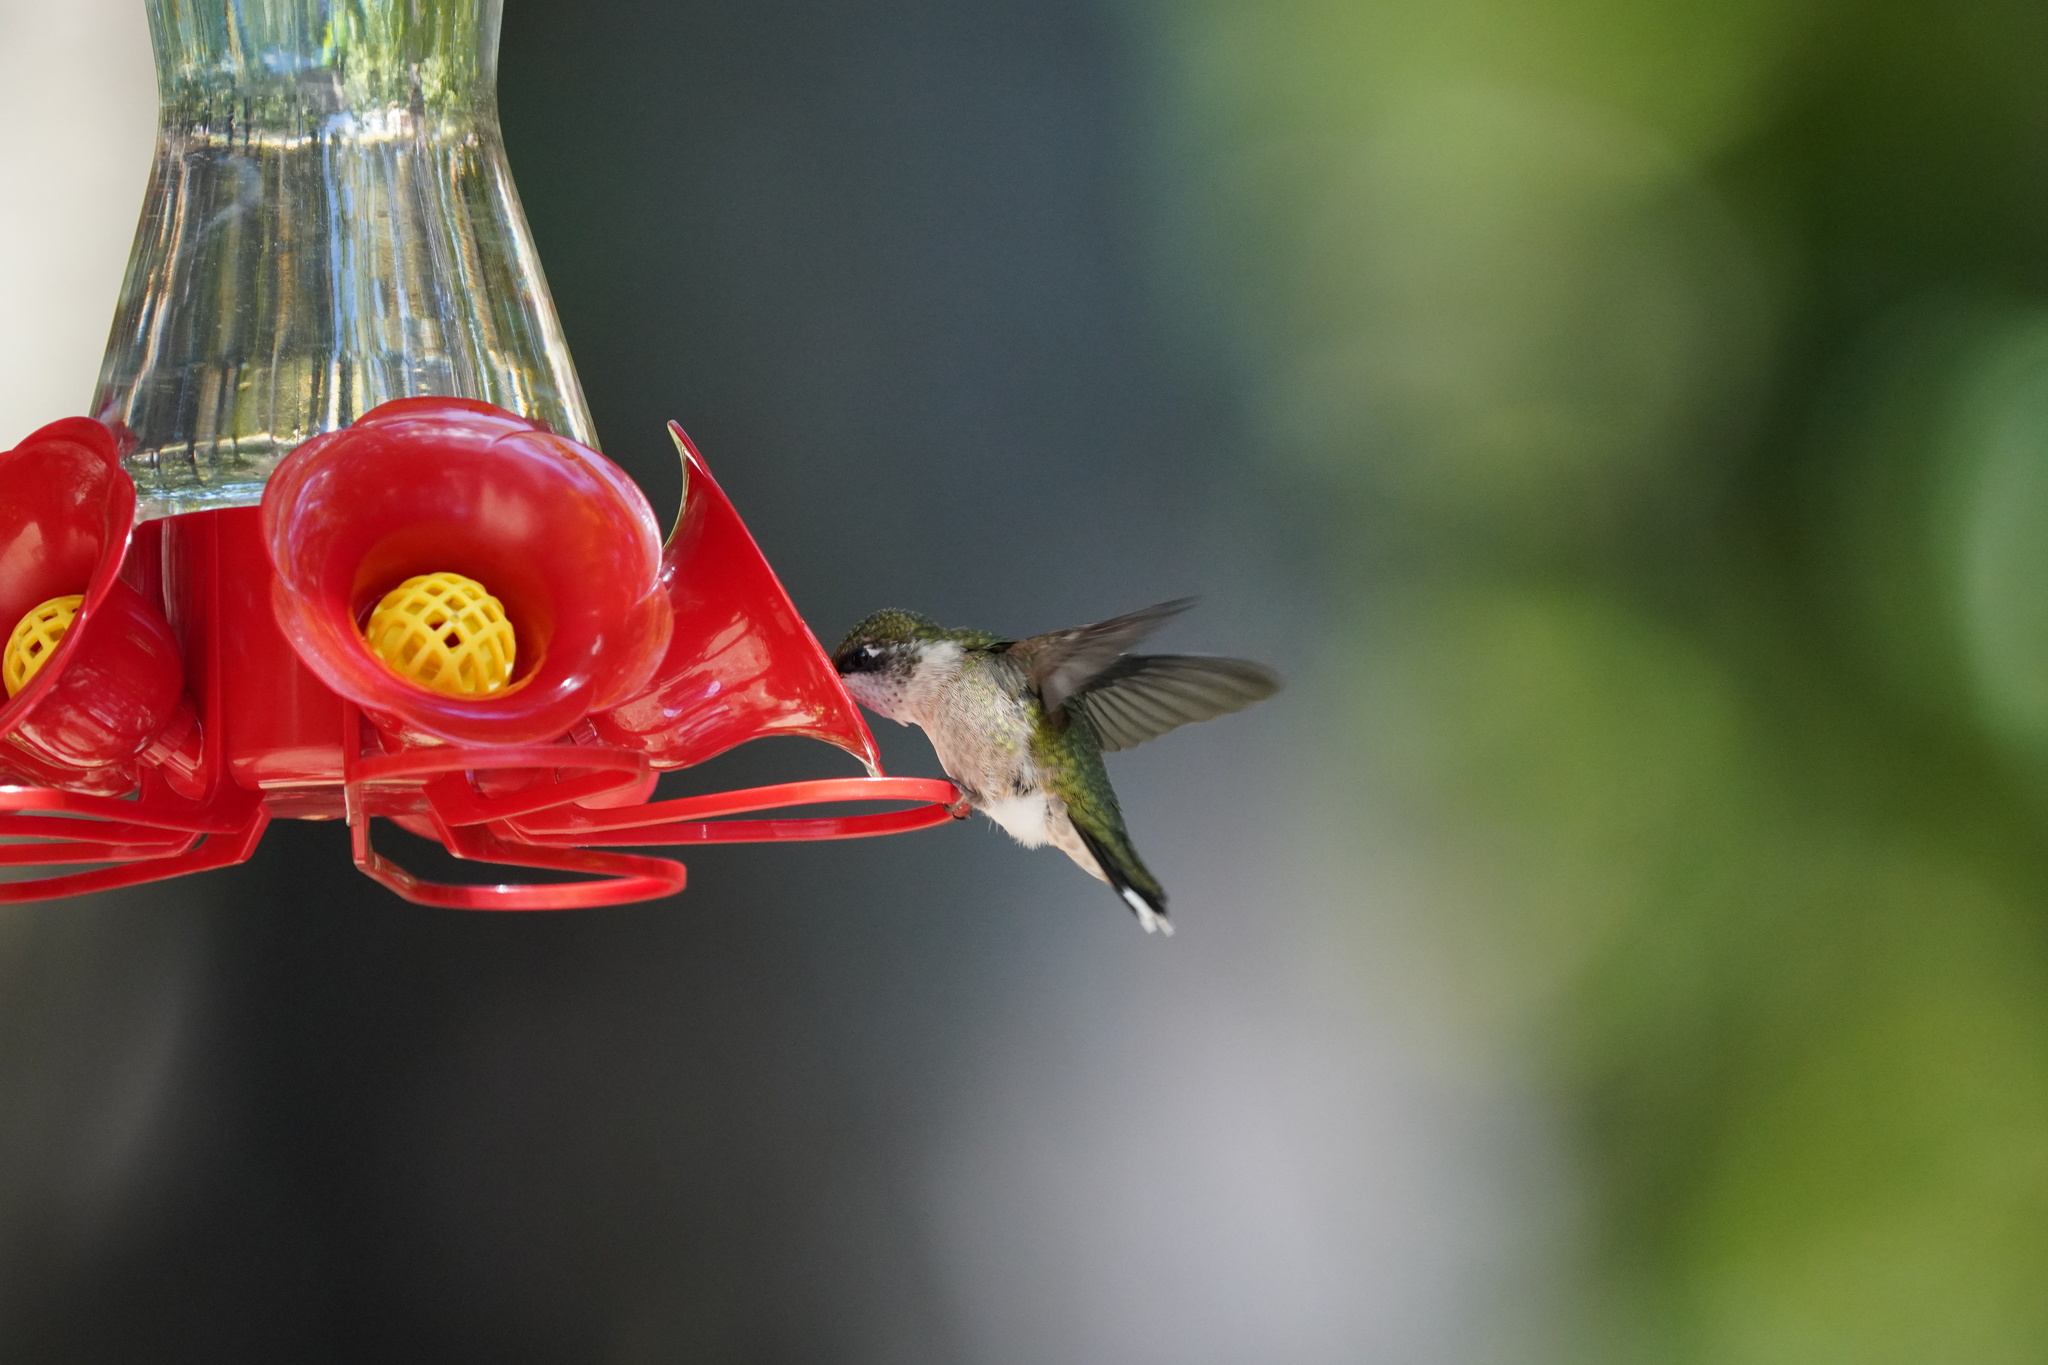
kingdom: Animalia
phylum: Chordata
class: Aves
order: Apodiformes
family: Trochilidae
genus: Archilochus
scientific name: Archilochus colubris
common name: Ruby-throated hummingbird
